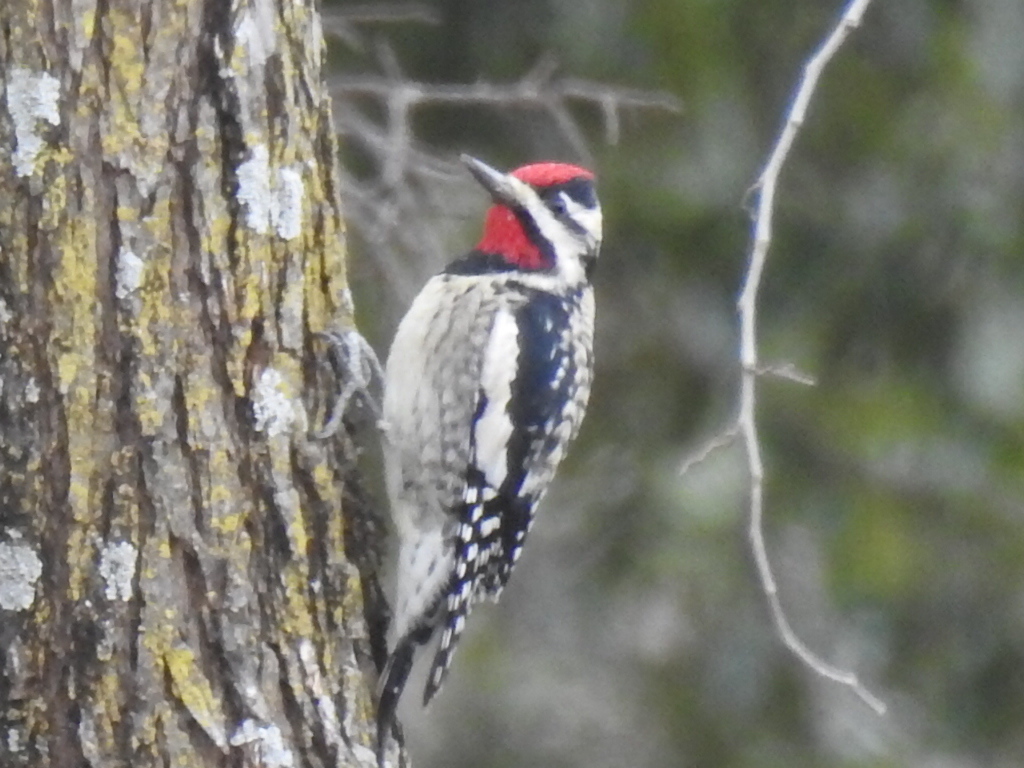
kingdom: Animalia
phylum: Chordata
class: Aves
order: Piciformes
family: Picidae
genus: Sphyrapicus
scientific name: Sphyrapicus varius
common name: Yellow-bellied sapsucker
